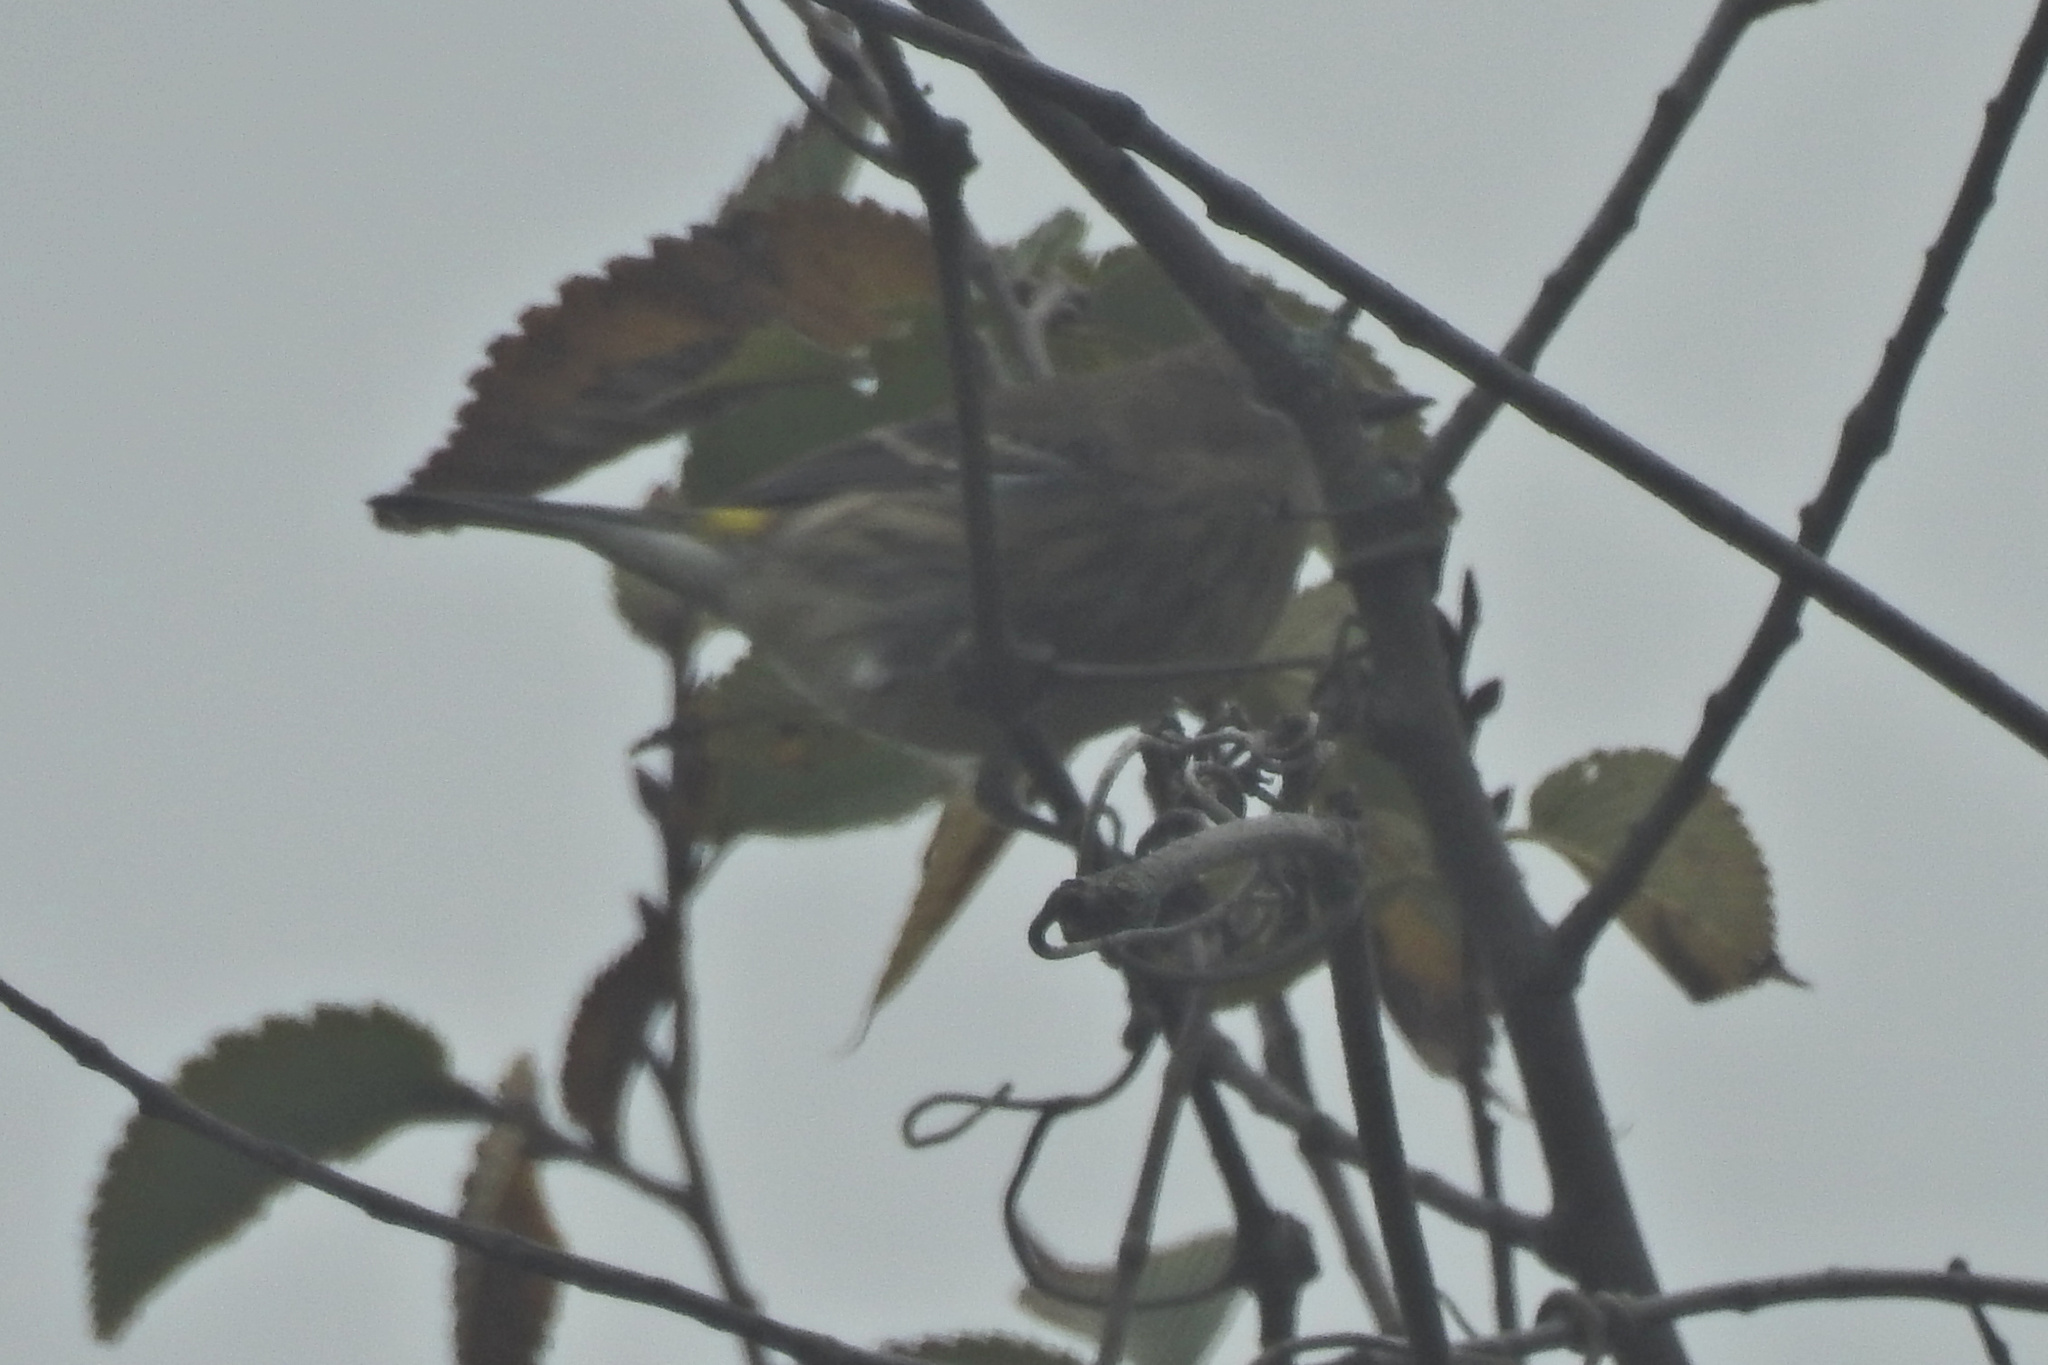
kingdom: Animalia
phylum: Chordata
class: Aves
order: Passeriformes
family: Parulidae
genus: Setophaga
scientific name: Setophaga coronata
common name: Myrtle warbler
